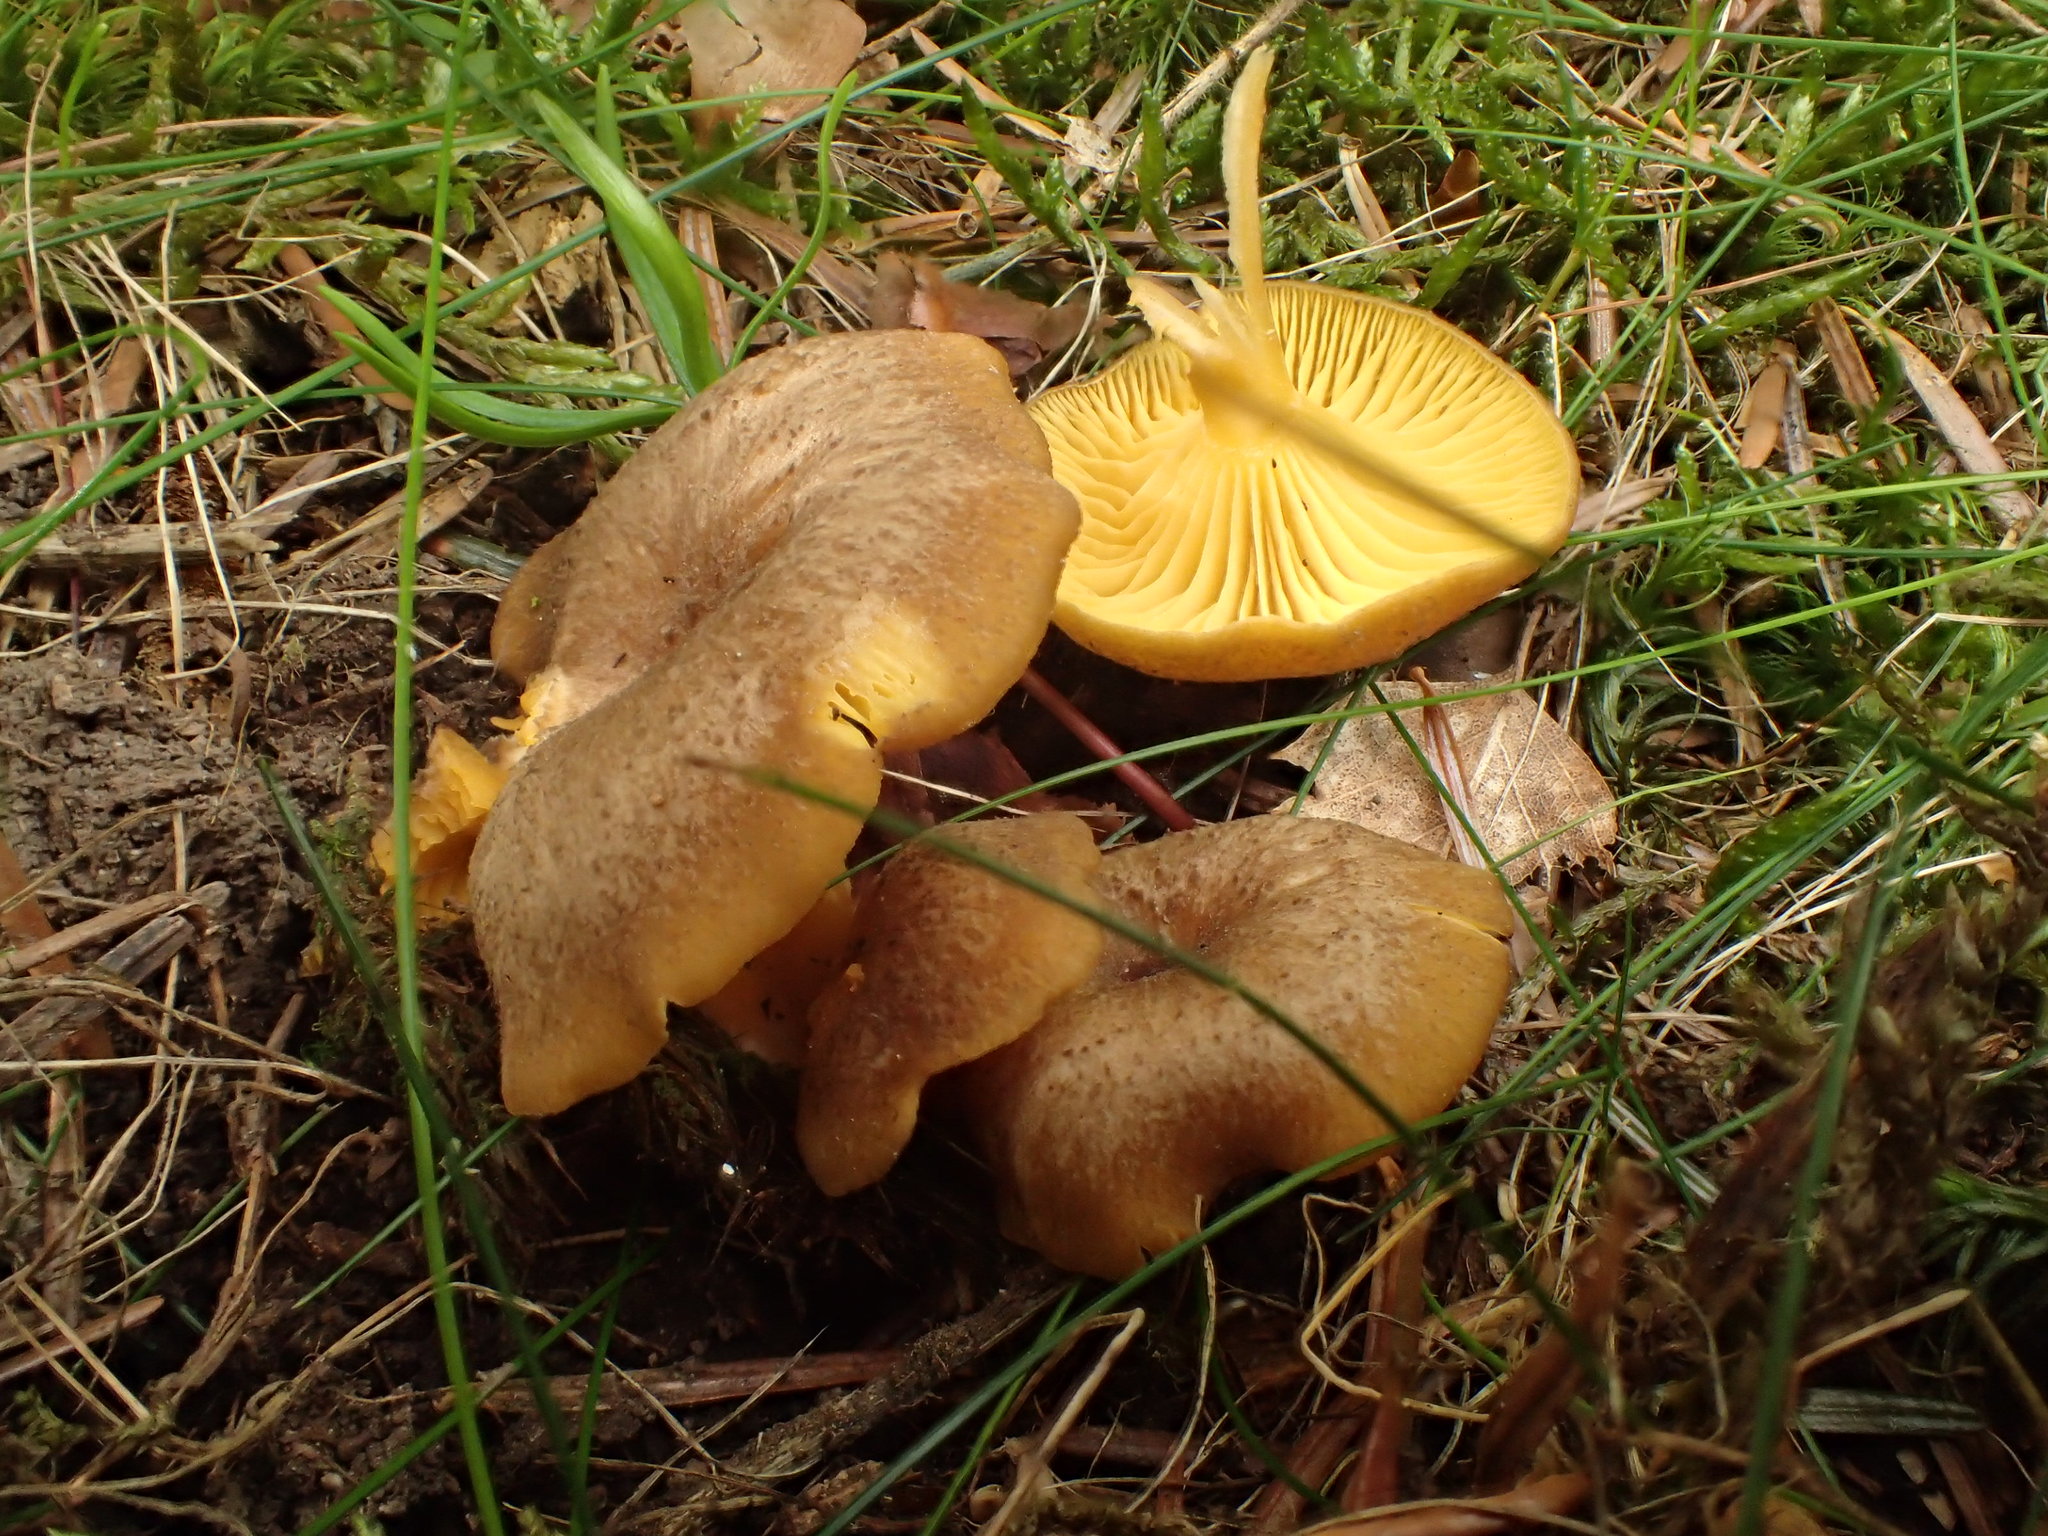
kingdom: Fungi
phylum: Basidiomycota
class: Agaricomycetes
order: Agaricales
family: Hygrophoraceae
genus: Chrysomphalina
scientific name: Chrysomphalina chrysophylla
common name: Golden navel
